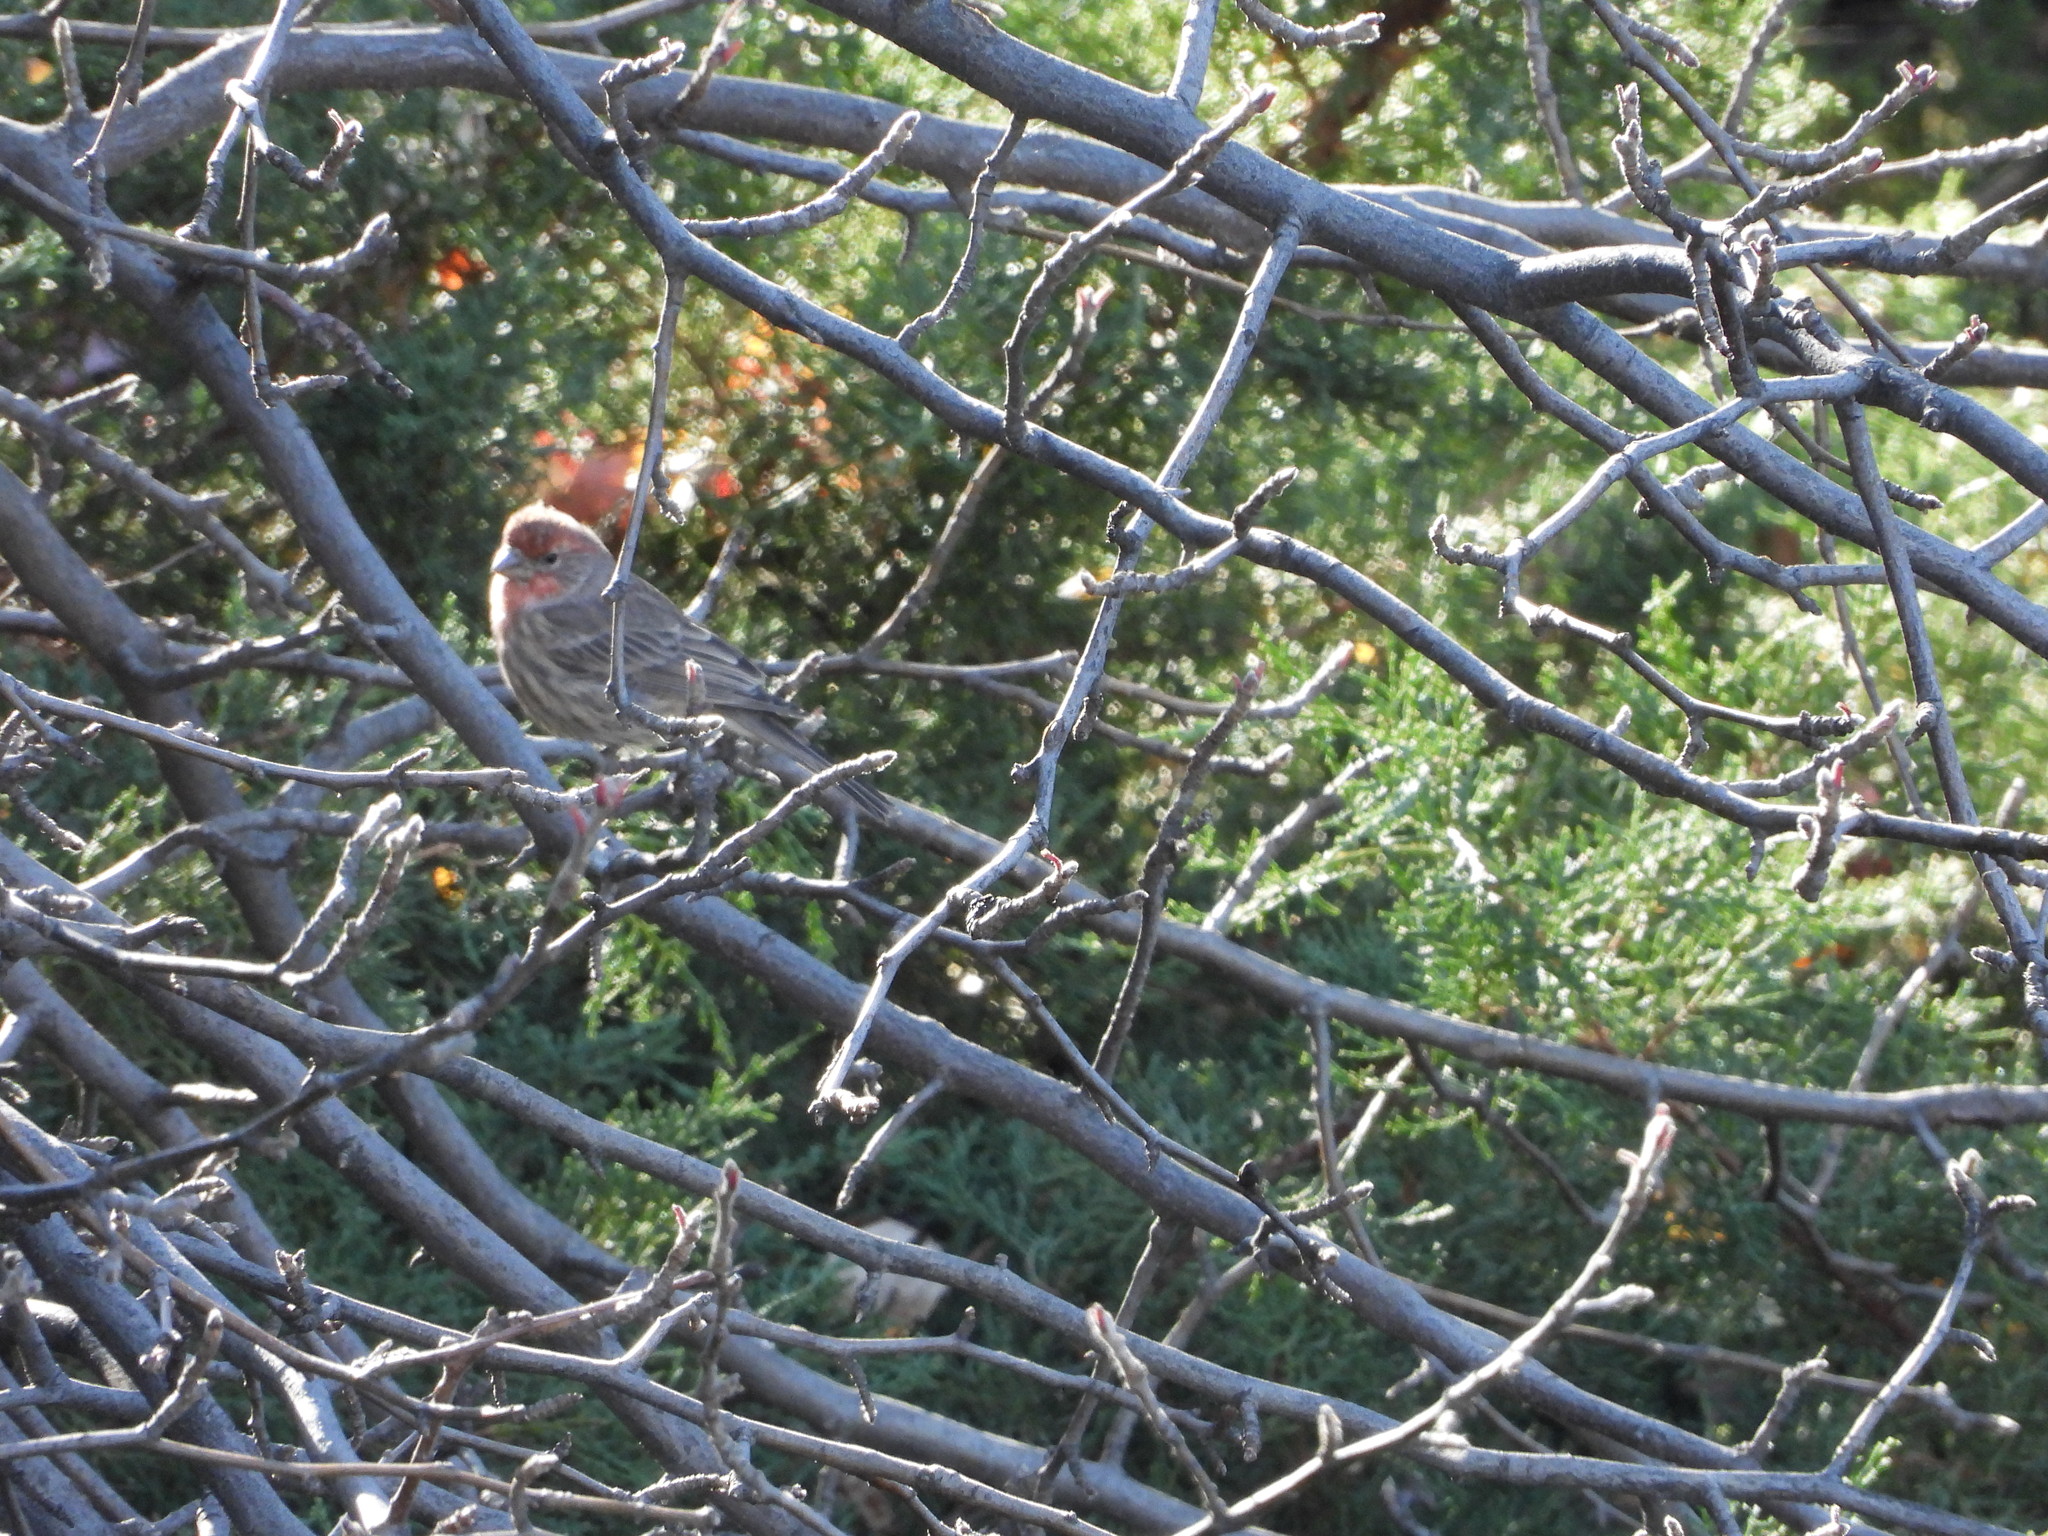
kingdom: Animalia
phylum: Chordata
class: Aves
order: Passeriformes
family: Fringillidae
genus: Haemorhous
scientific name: Haemorhous mexicanus
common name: House finch
